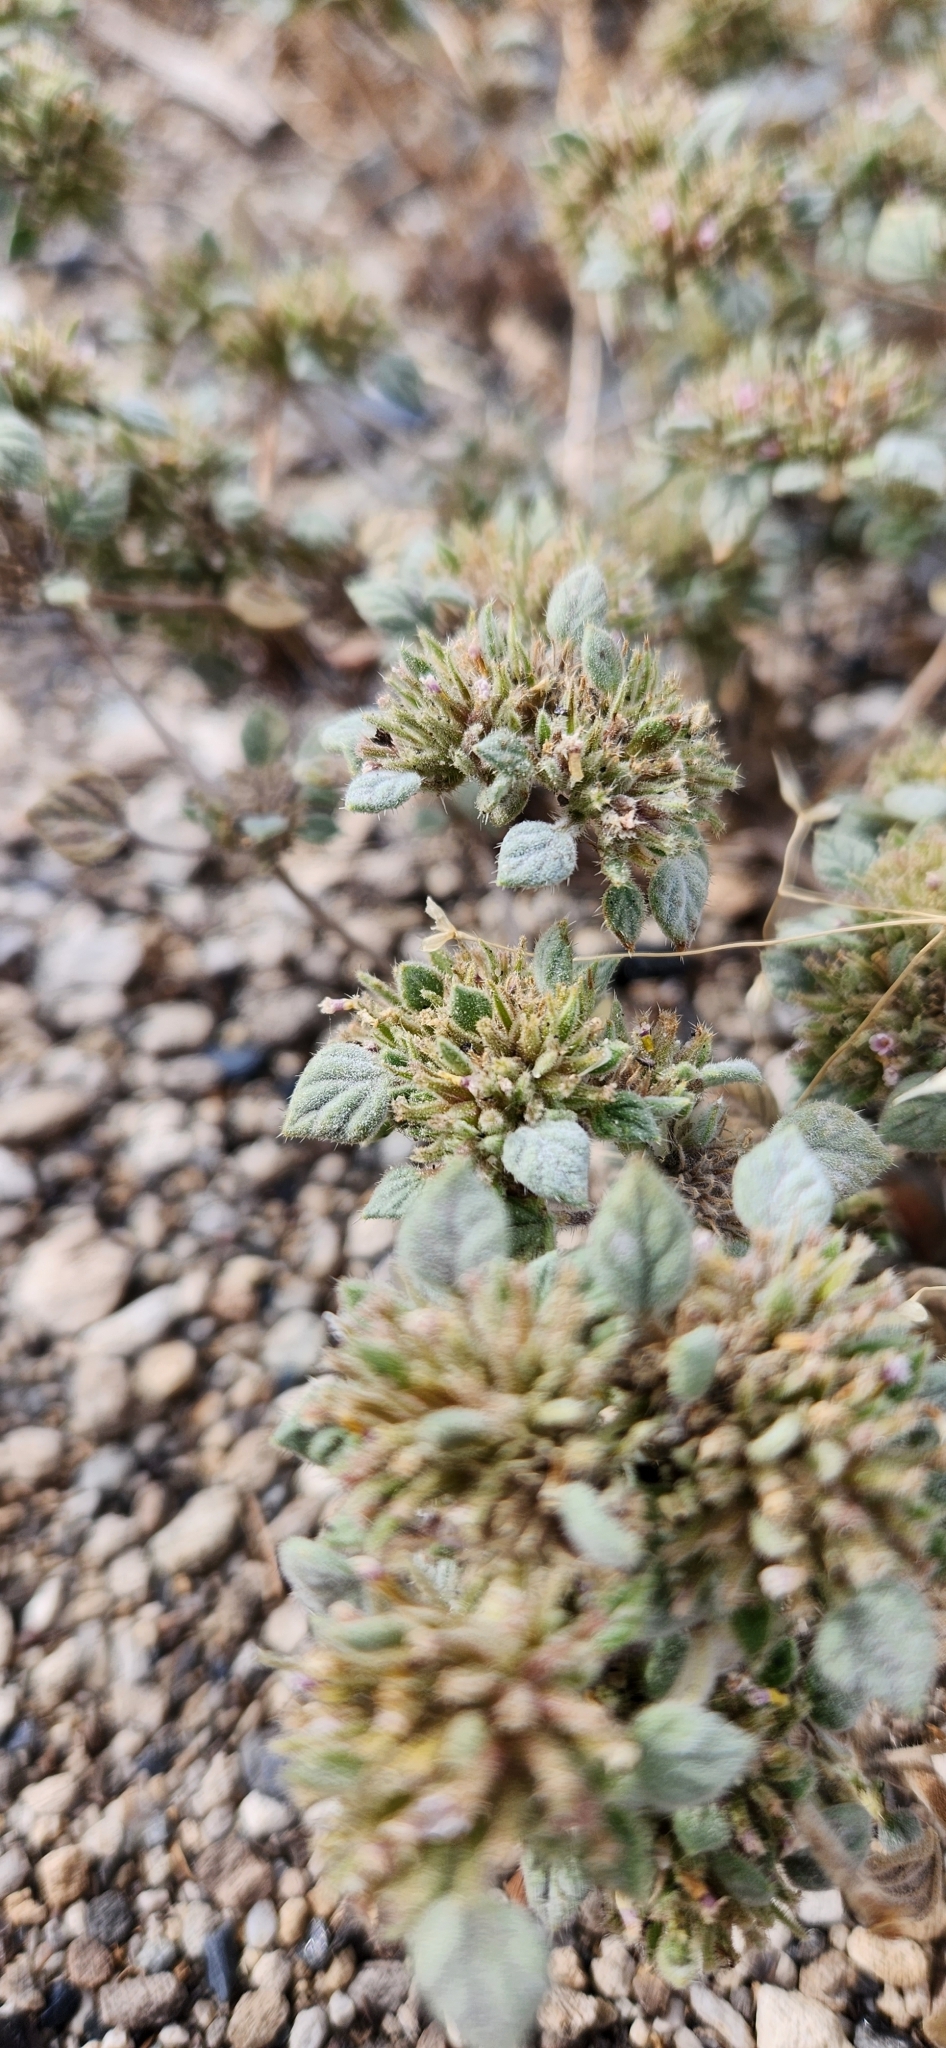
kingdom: Plantae
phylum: Tracheophyta
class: Magnoliopsida
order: Boraginales
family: Ehretiaceae
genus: Tiquilia
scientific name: Tiquilia nuttallii
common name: Rosette tiquilia
